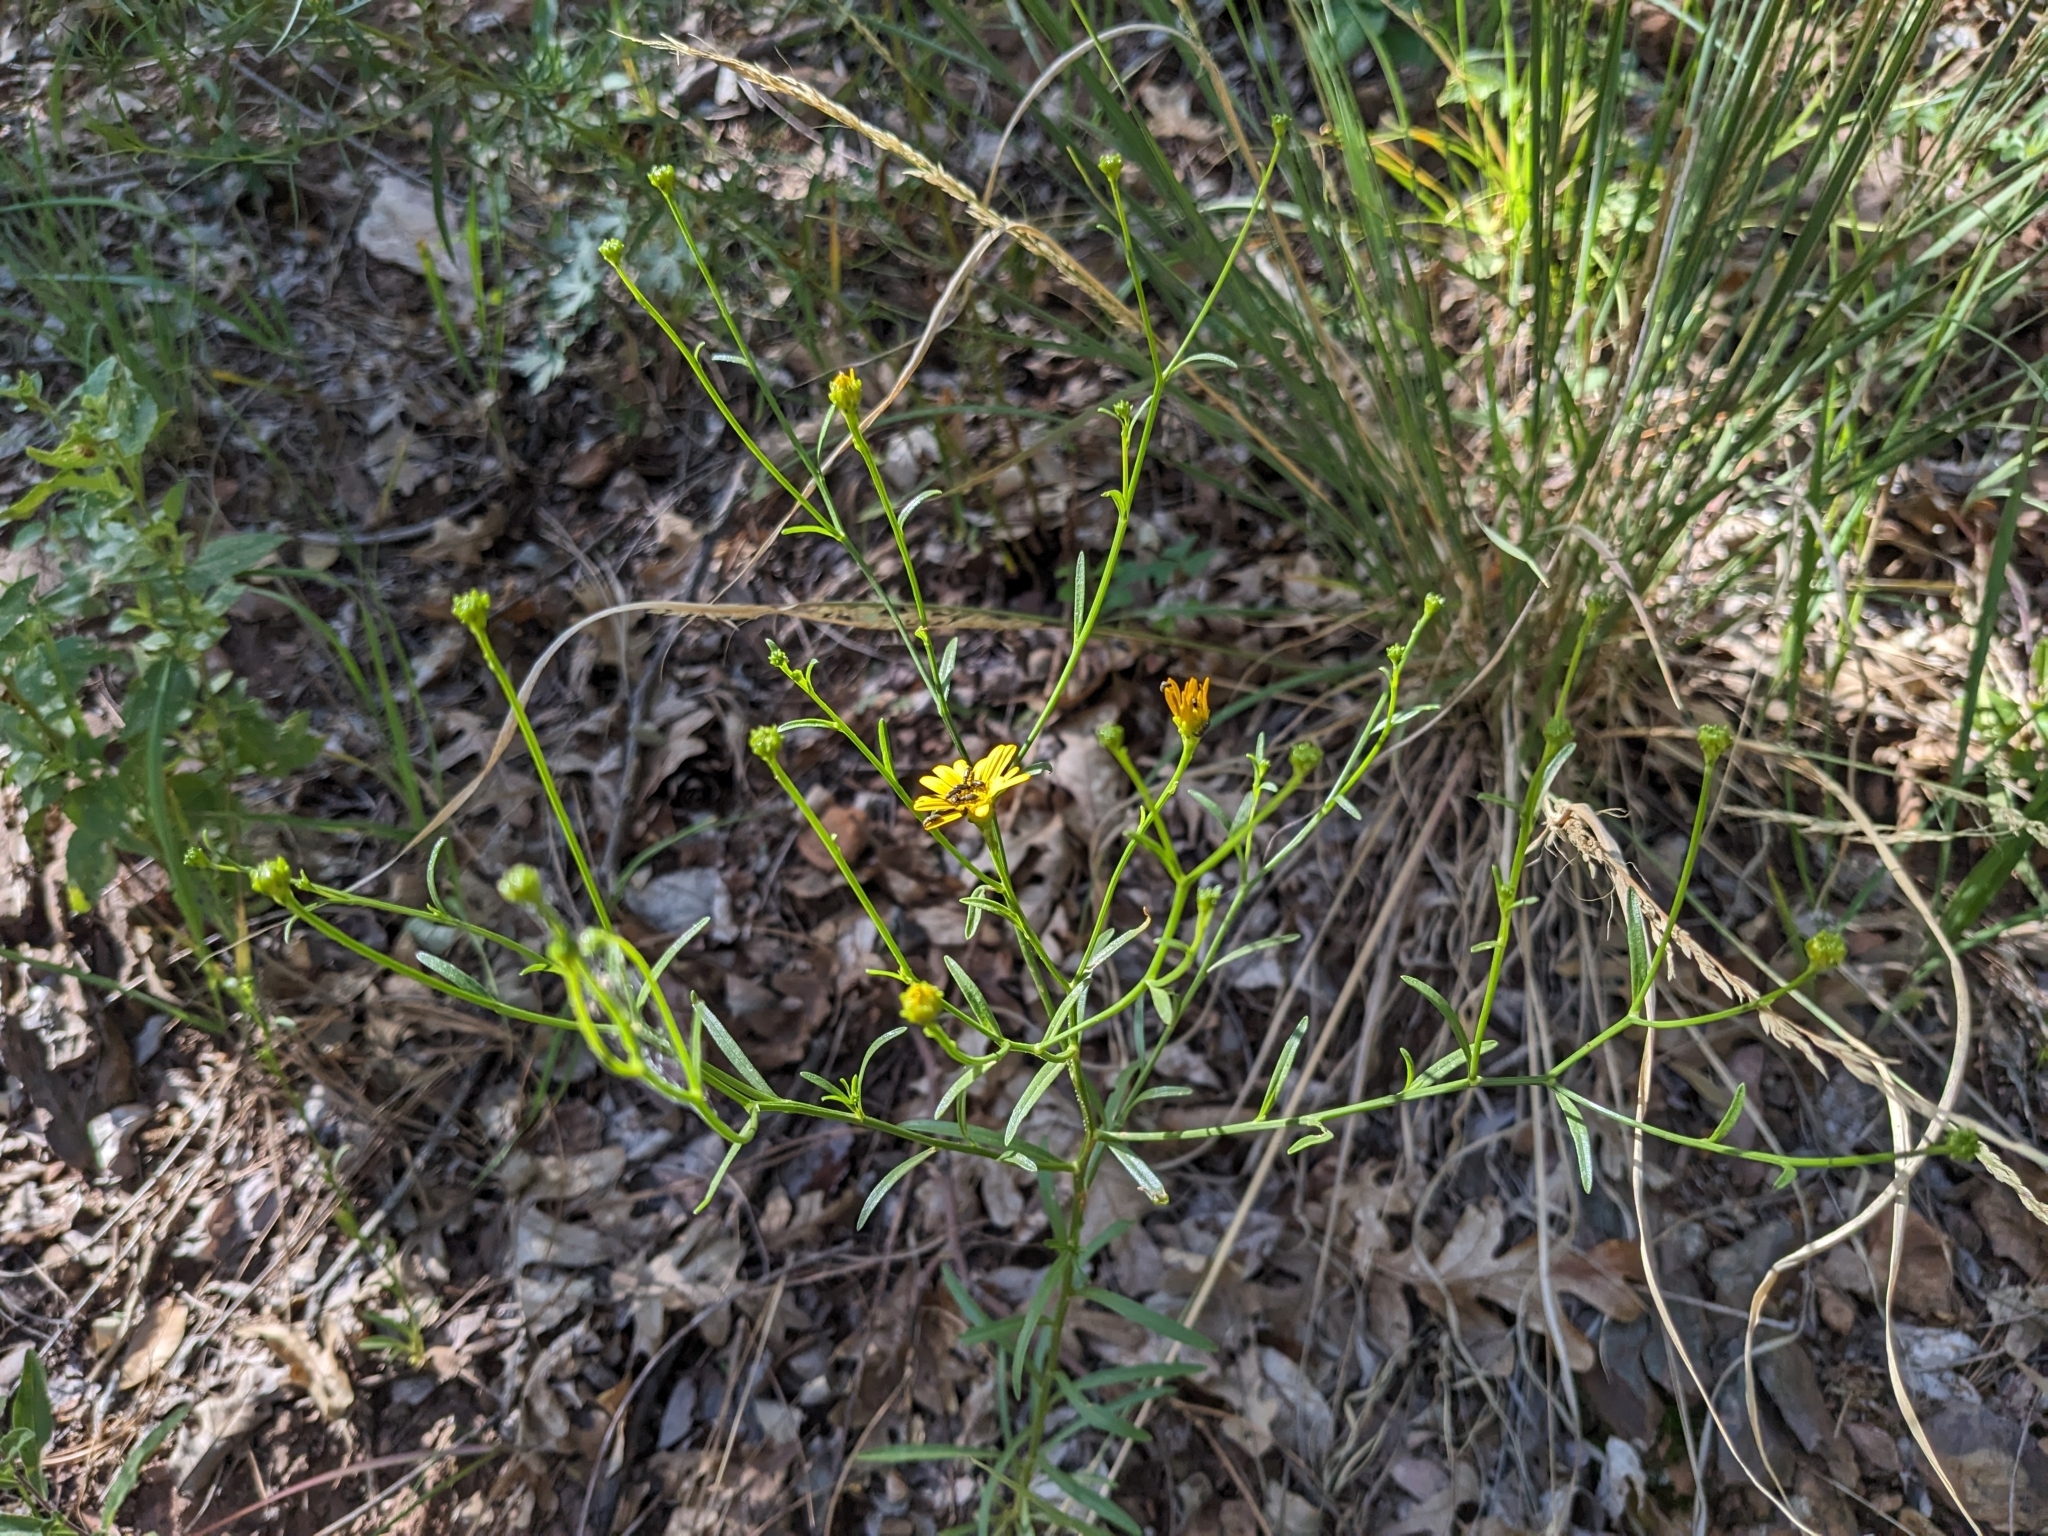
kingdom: Plantae
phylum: Tracheophyta
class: Magnoliopsida
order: Asterales
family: Asteraceae
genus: Gutierrezia
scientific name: Gutierrezia wrightii
